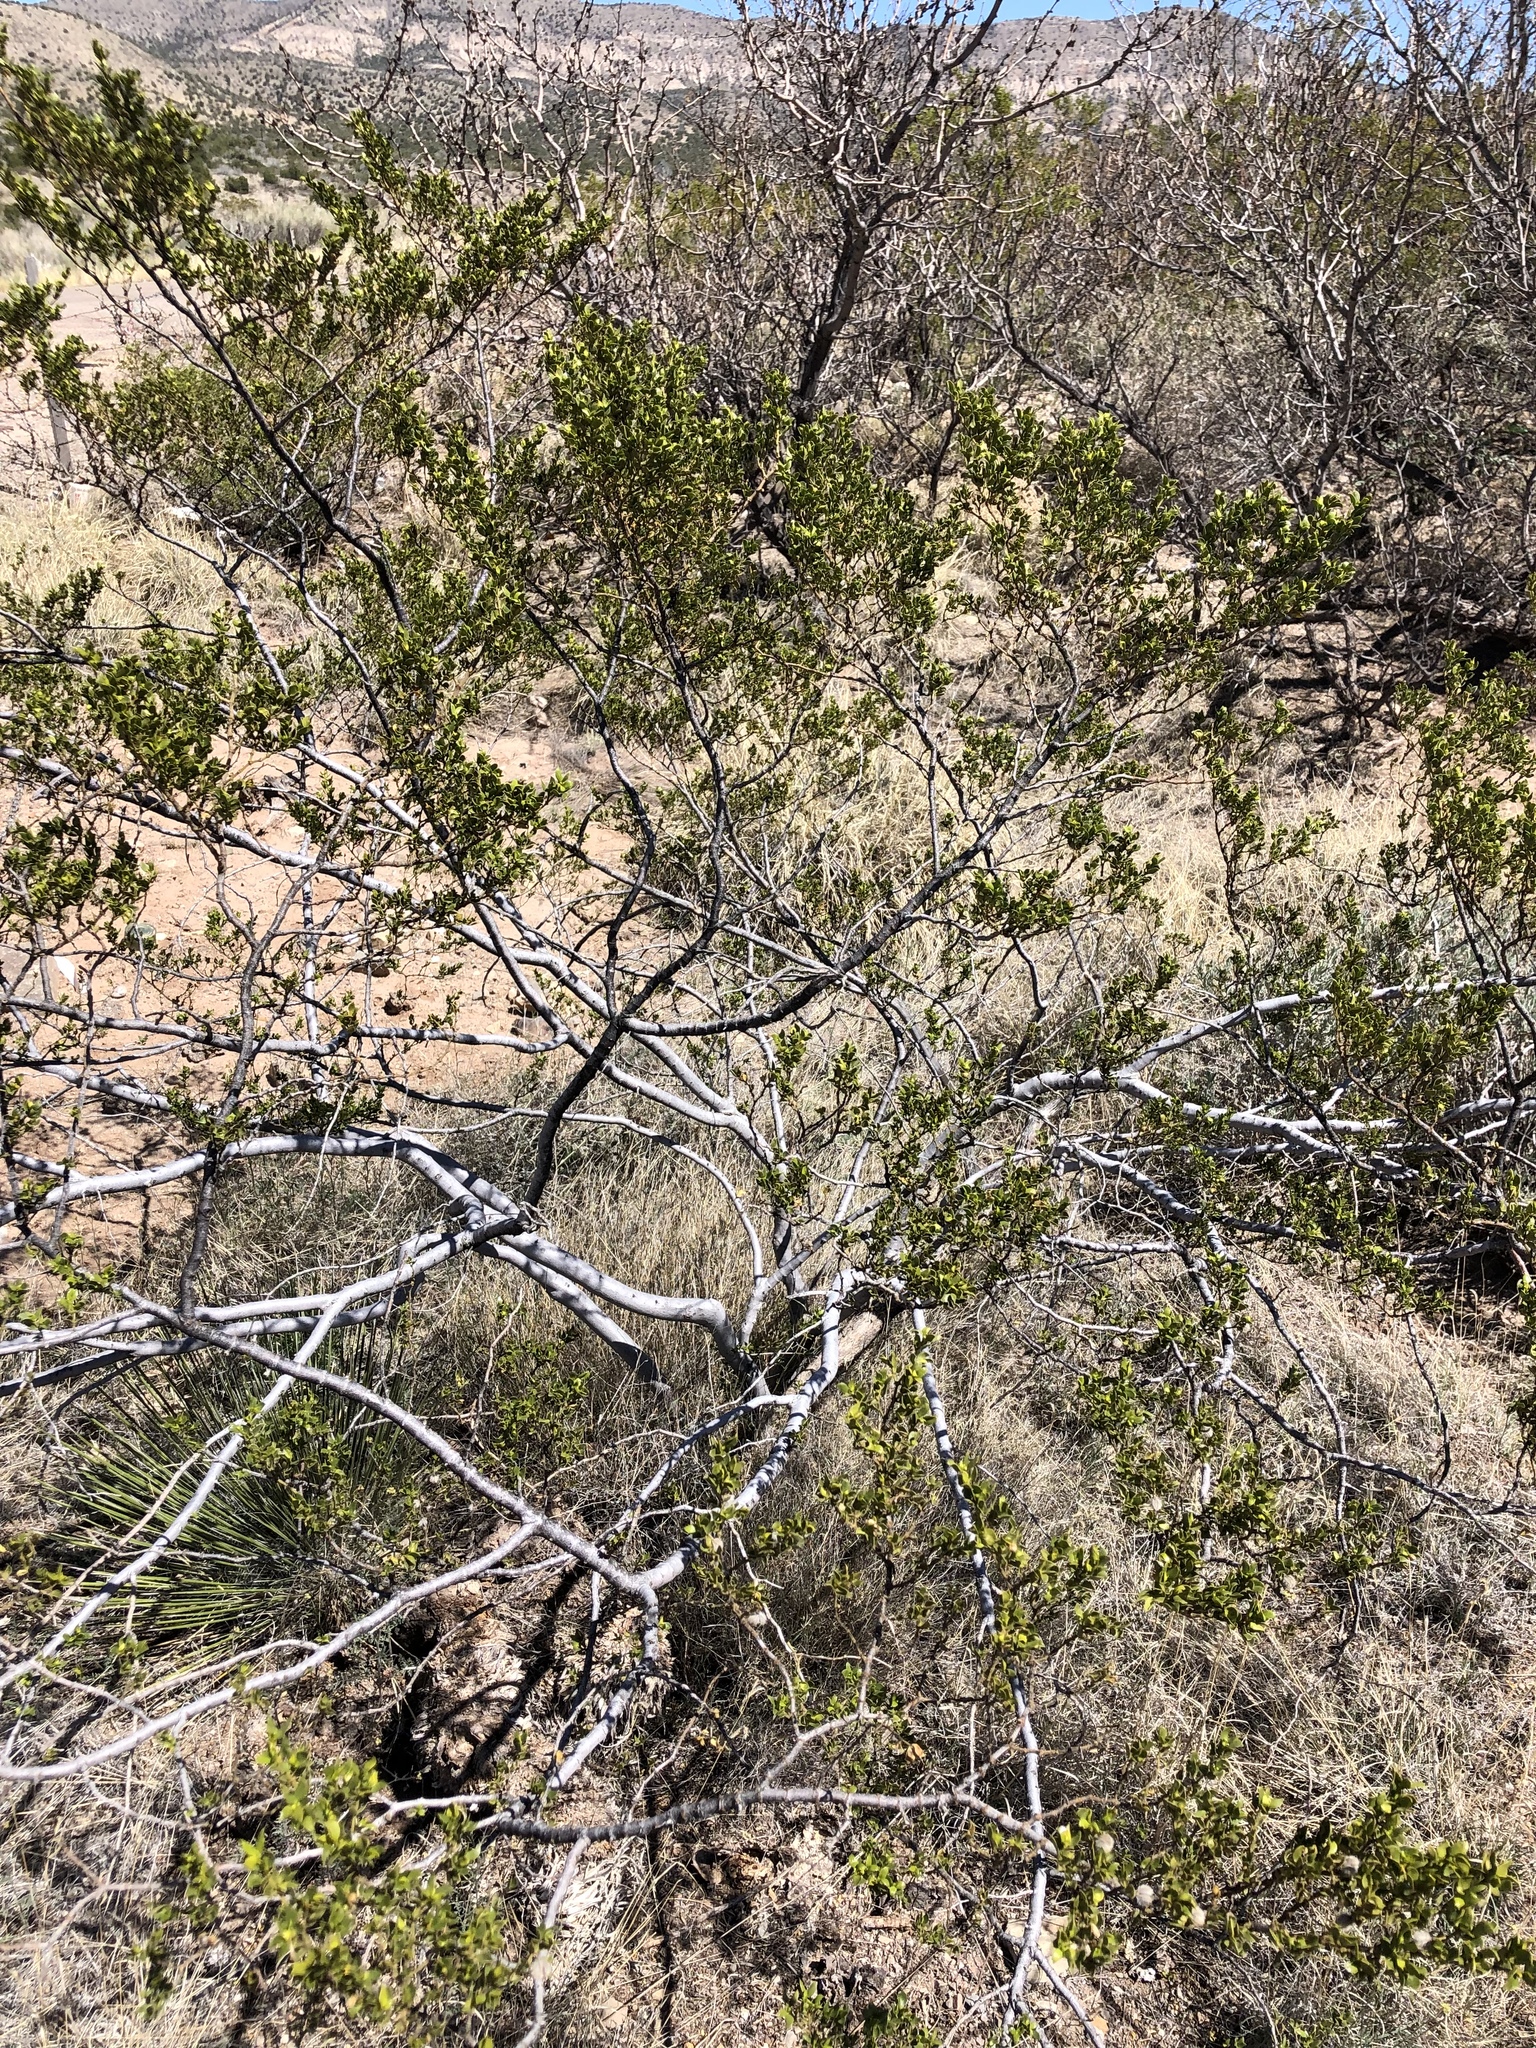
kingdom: Plantae
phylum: Tracheophyta
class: Magnoliopsida
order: Zygophyllales
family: Zygophyllaceae
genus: Larrea
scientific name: Larrea tridentata
